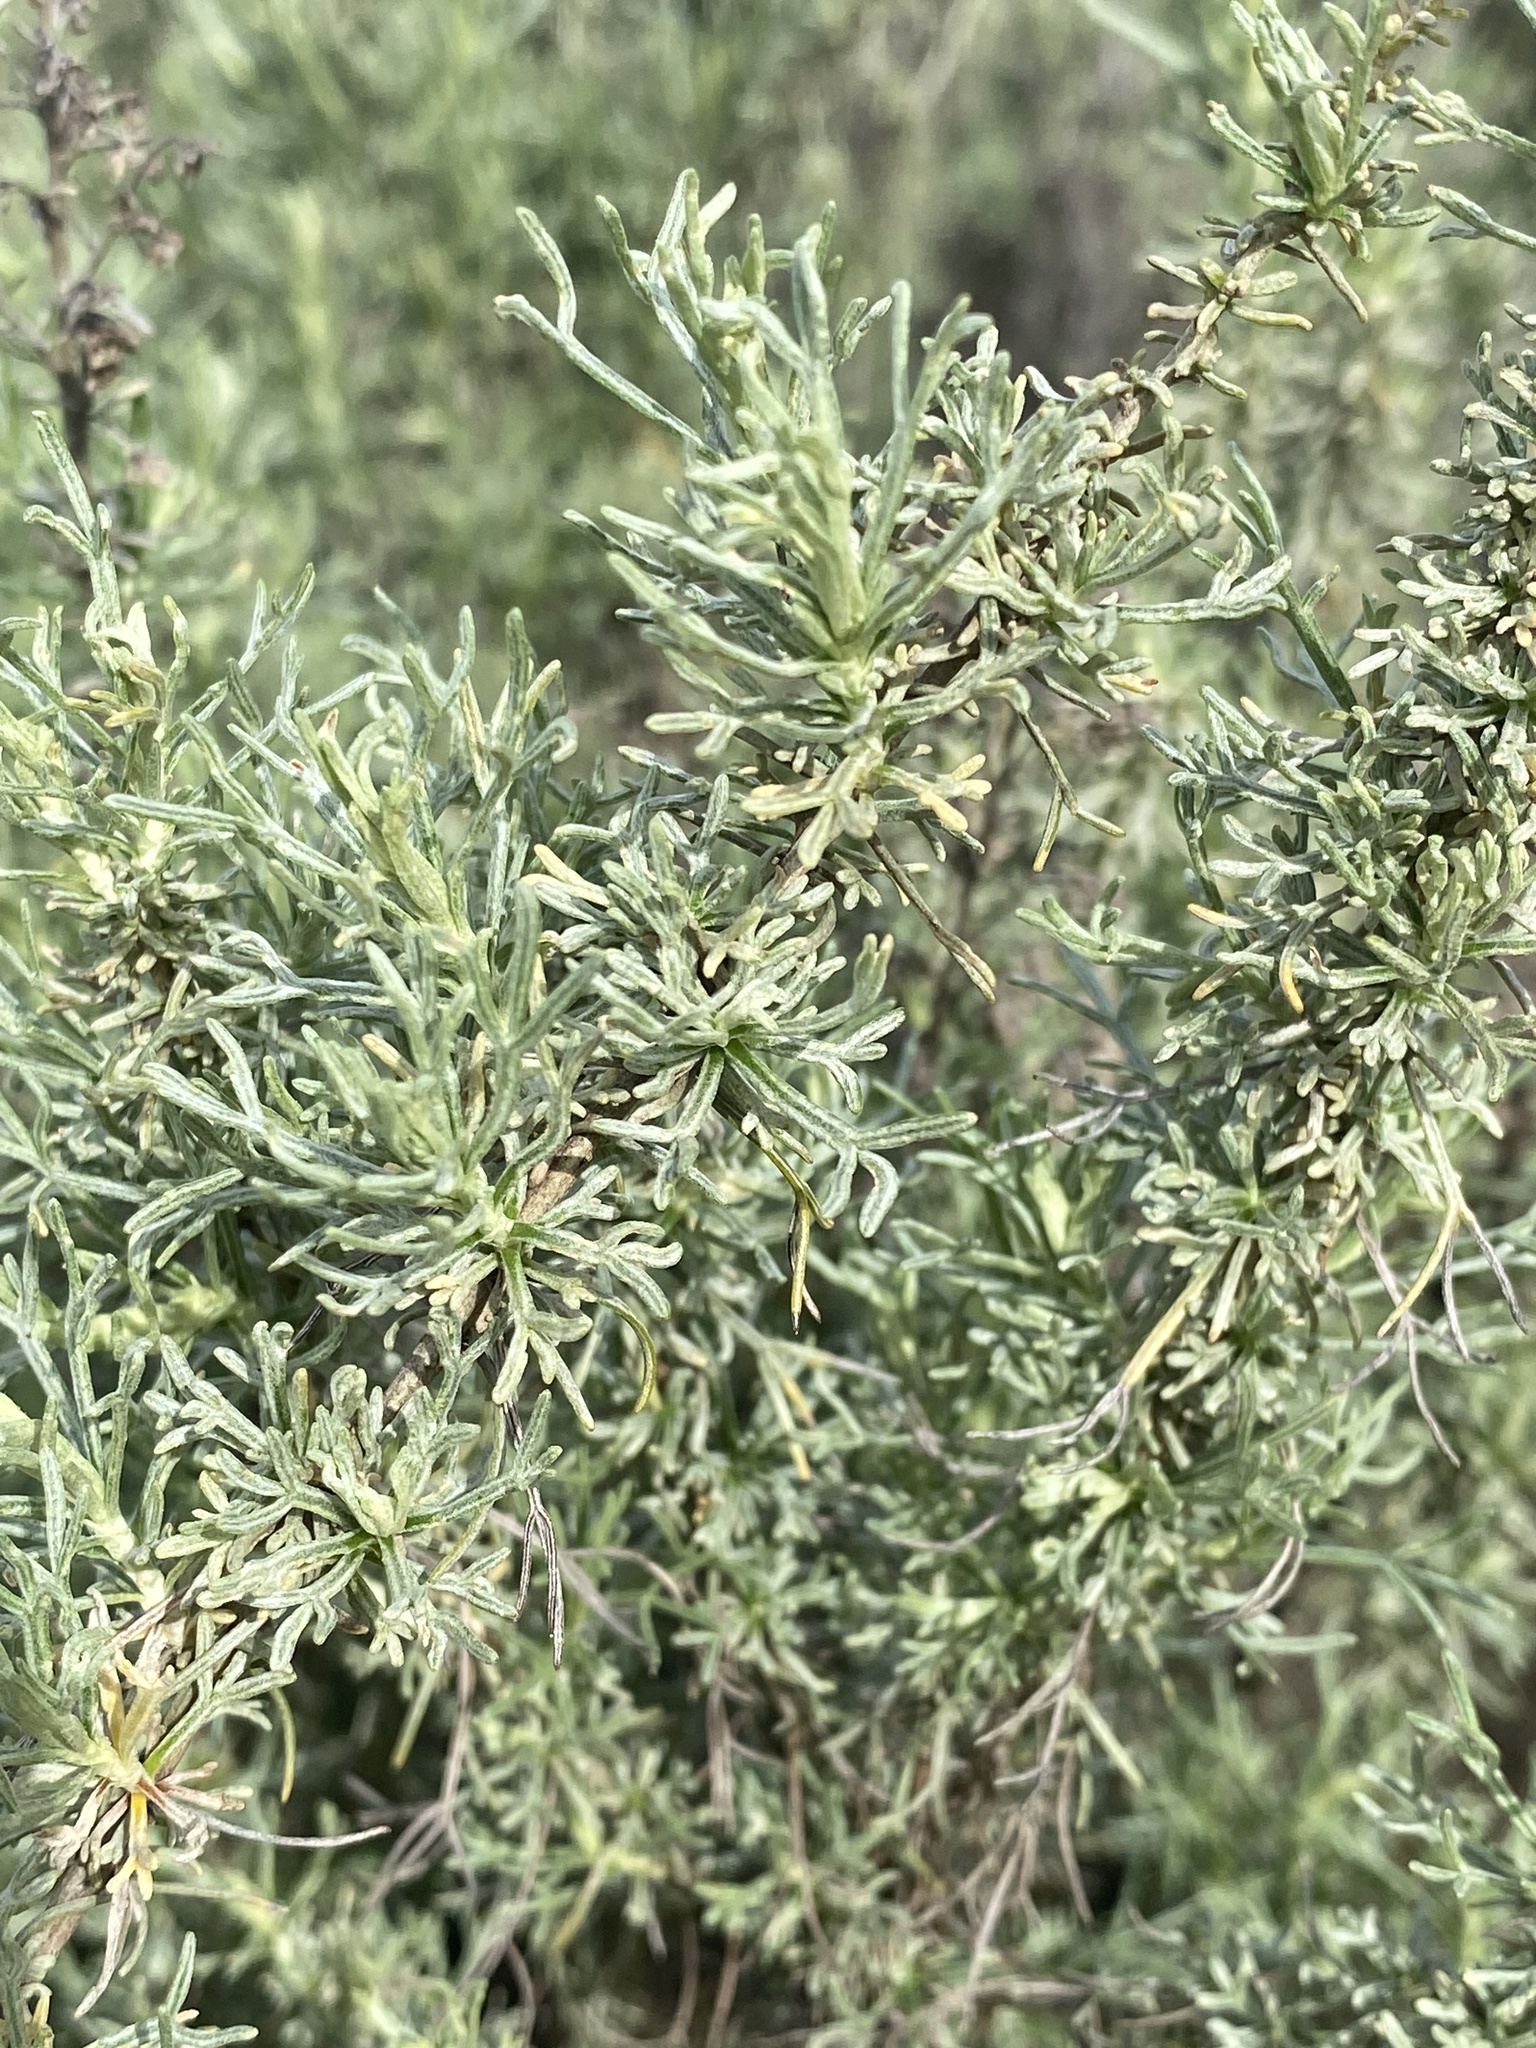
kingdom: Plantae
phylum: Tracheophyta
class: Magnoliopsida
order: Asterales
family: Asteraceae
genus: Artemisia
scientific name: Artemisia californica
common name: California sagebrush
